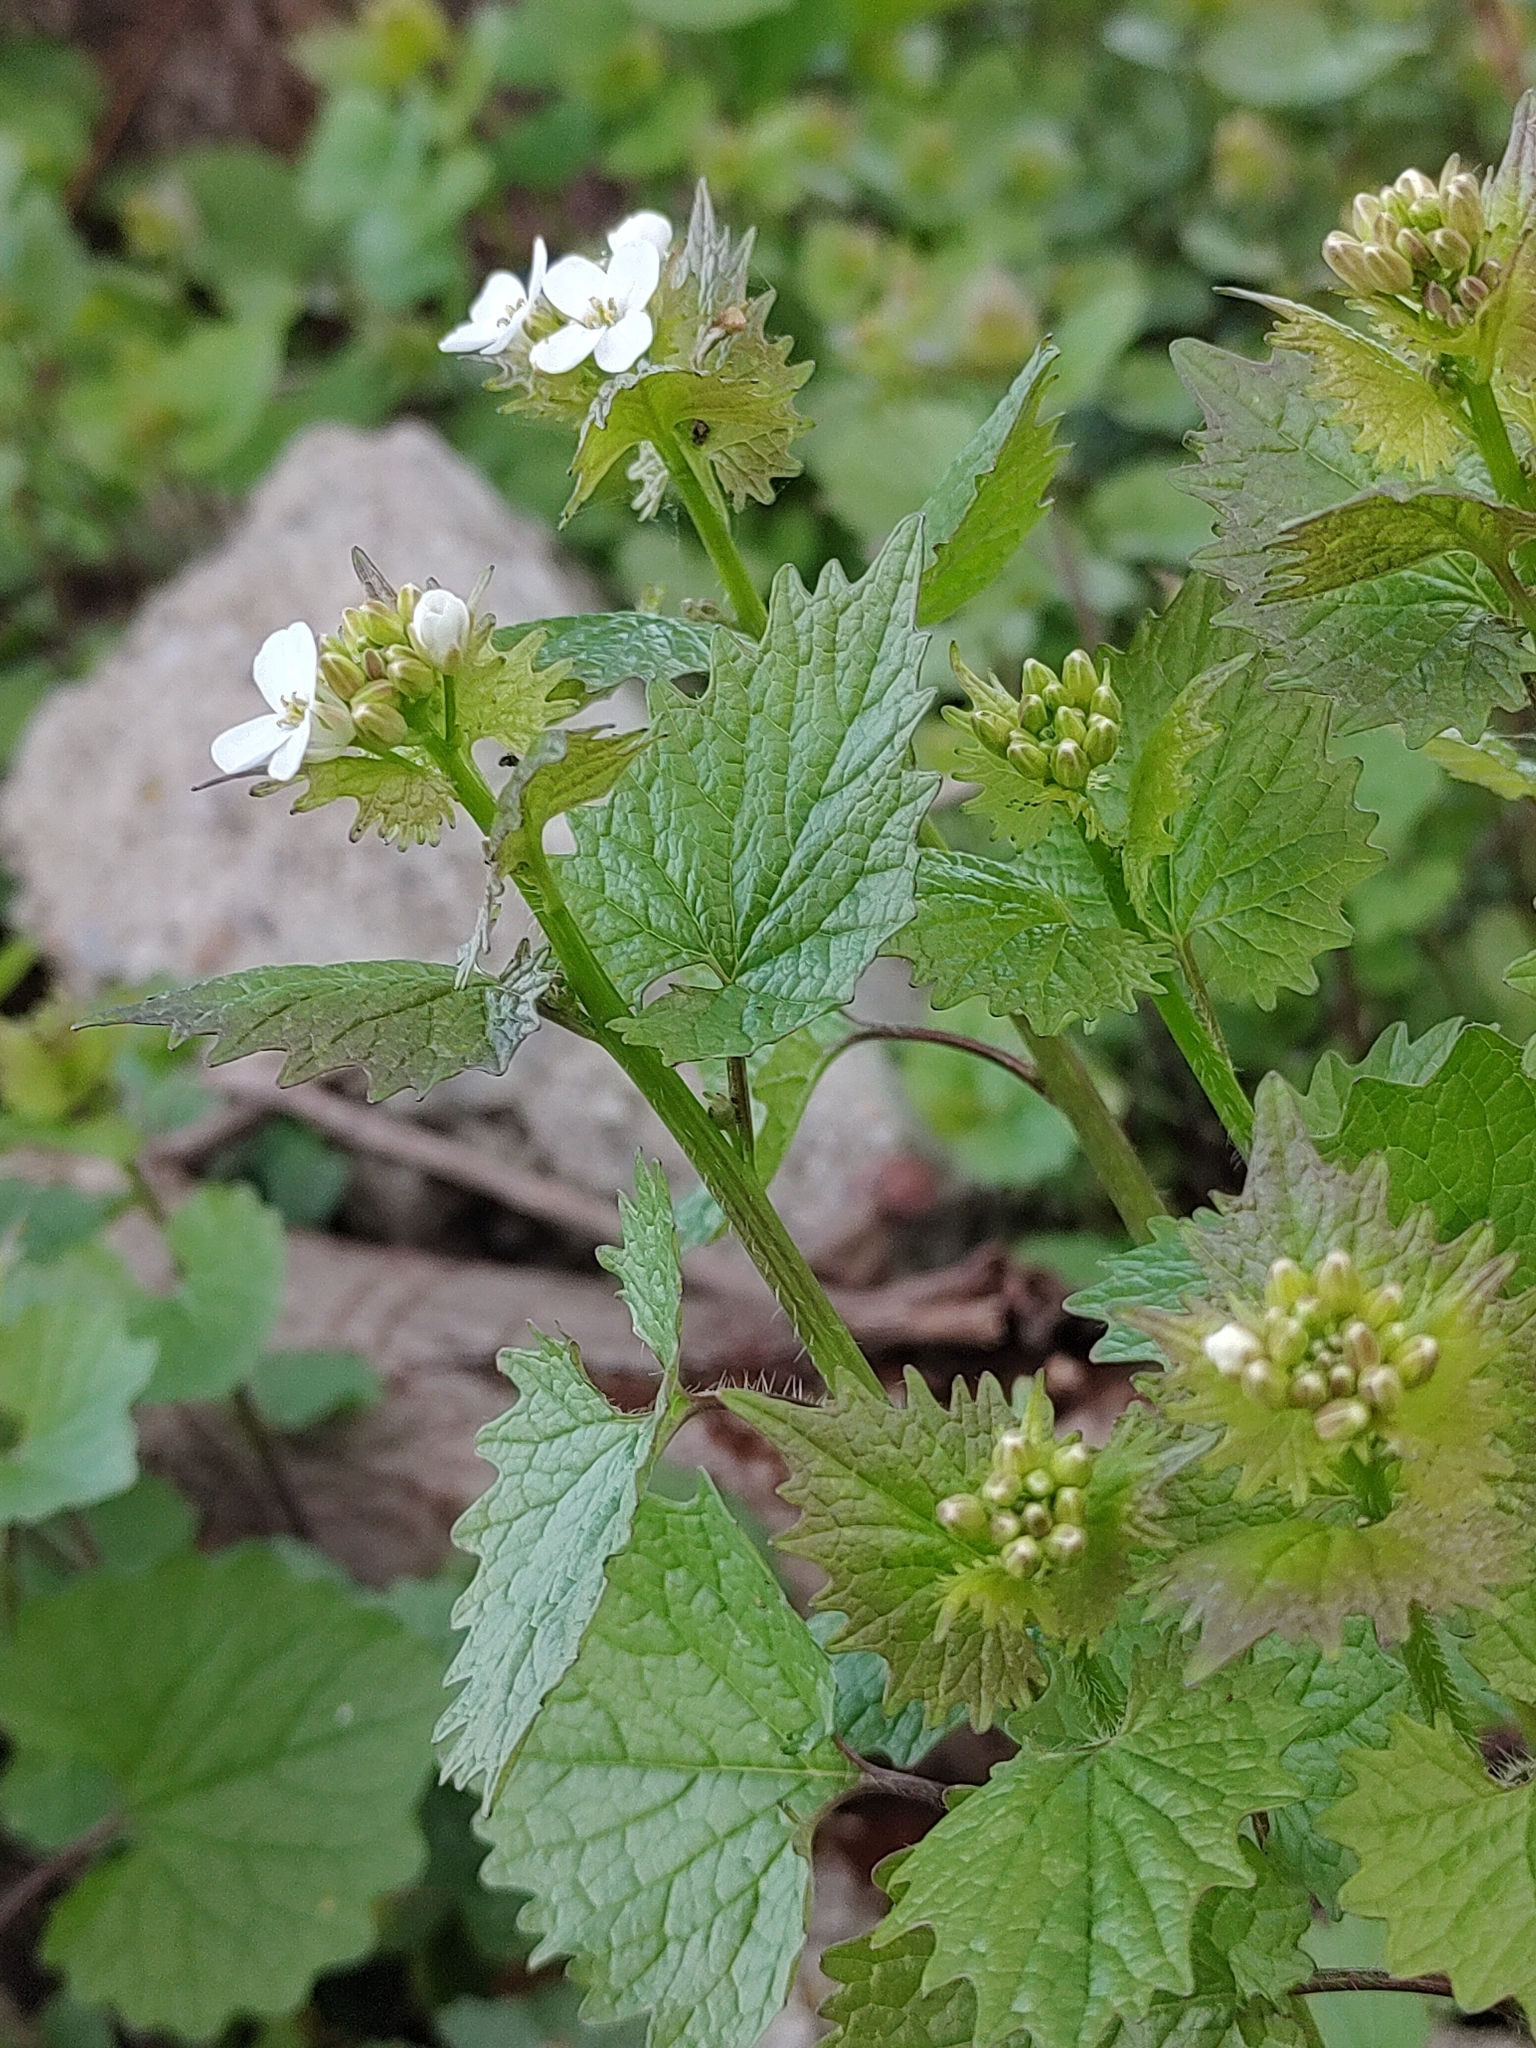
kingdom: Plantae
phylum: Tracheophyta
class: Magnoliopsida
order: Brassicales
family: Brassicaceae
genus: Alliaria
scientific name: Alliaria petiolata
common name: Garlic mustard
